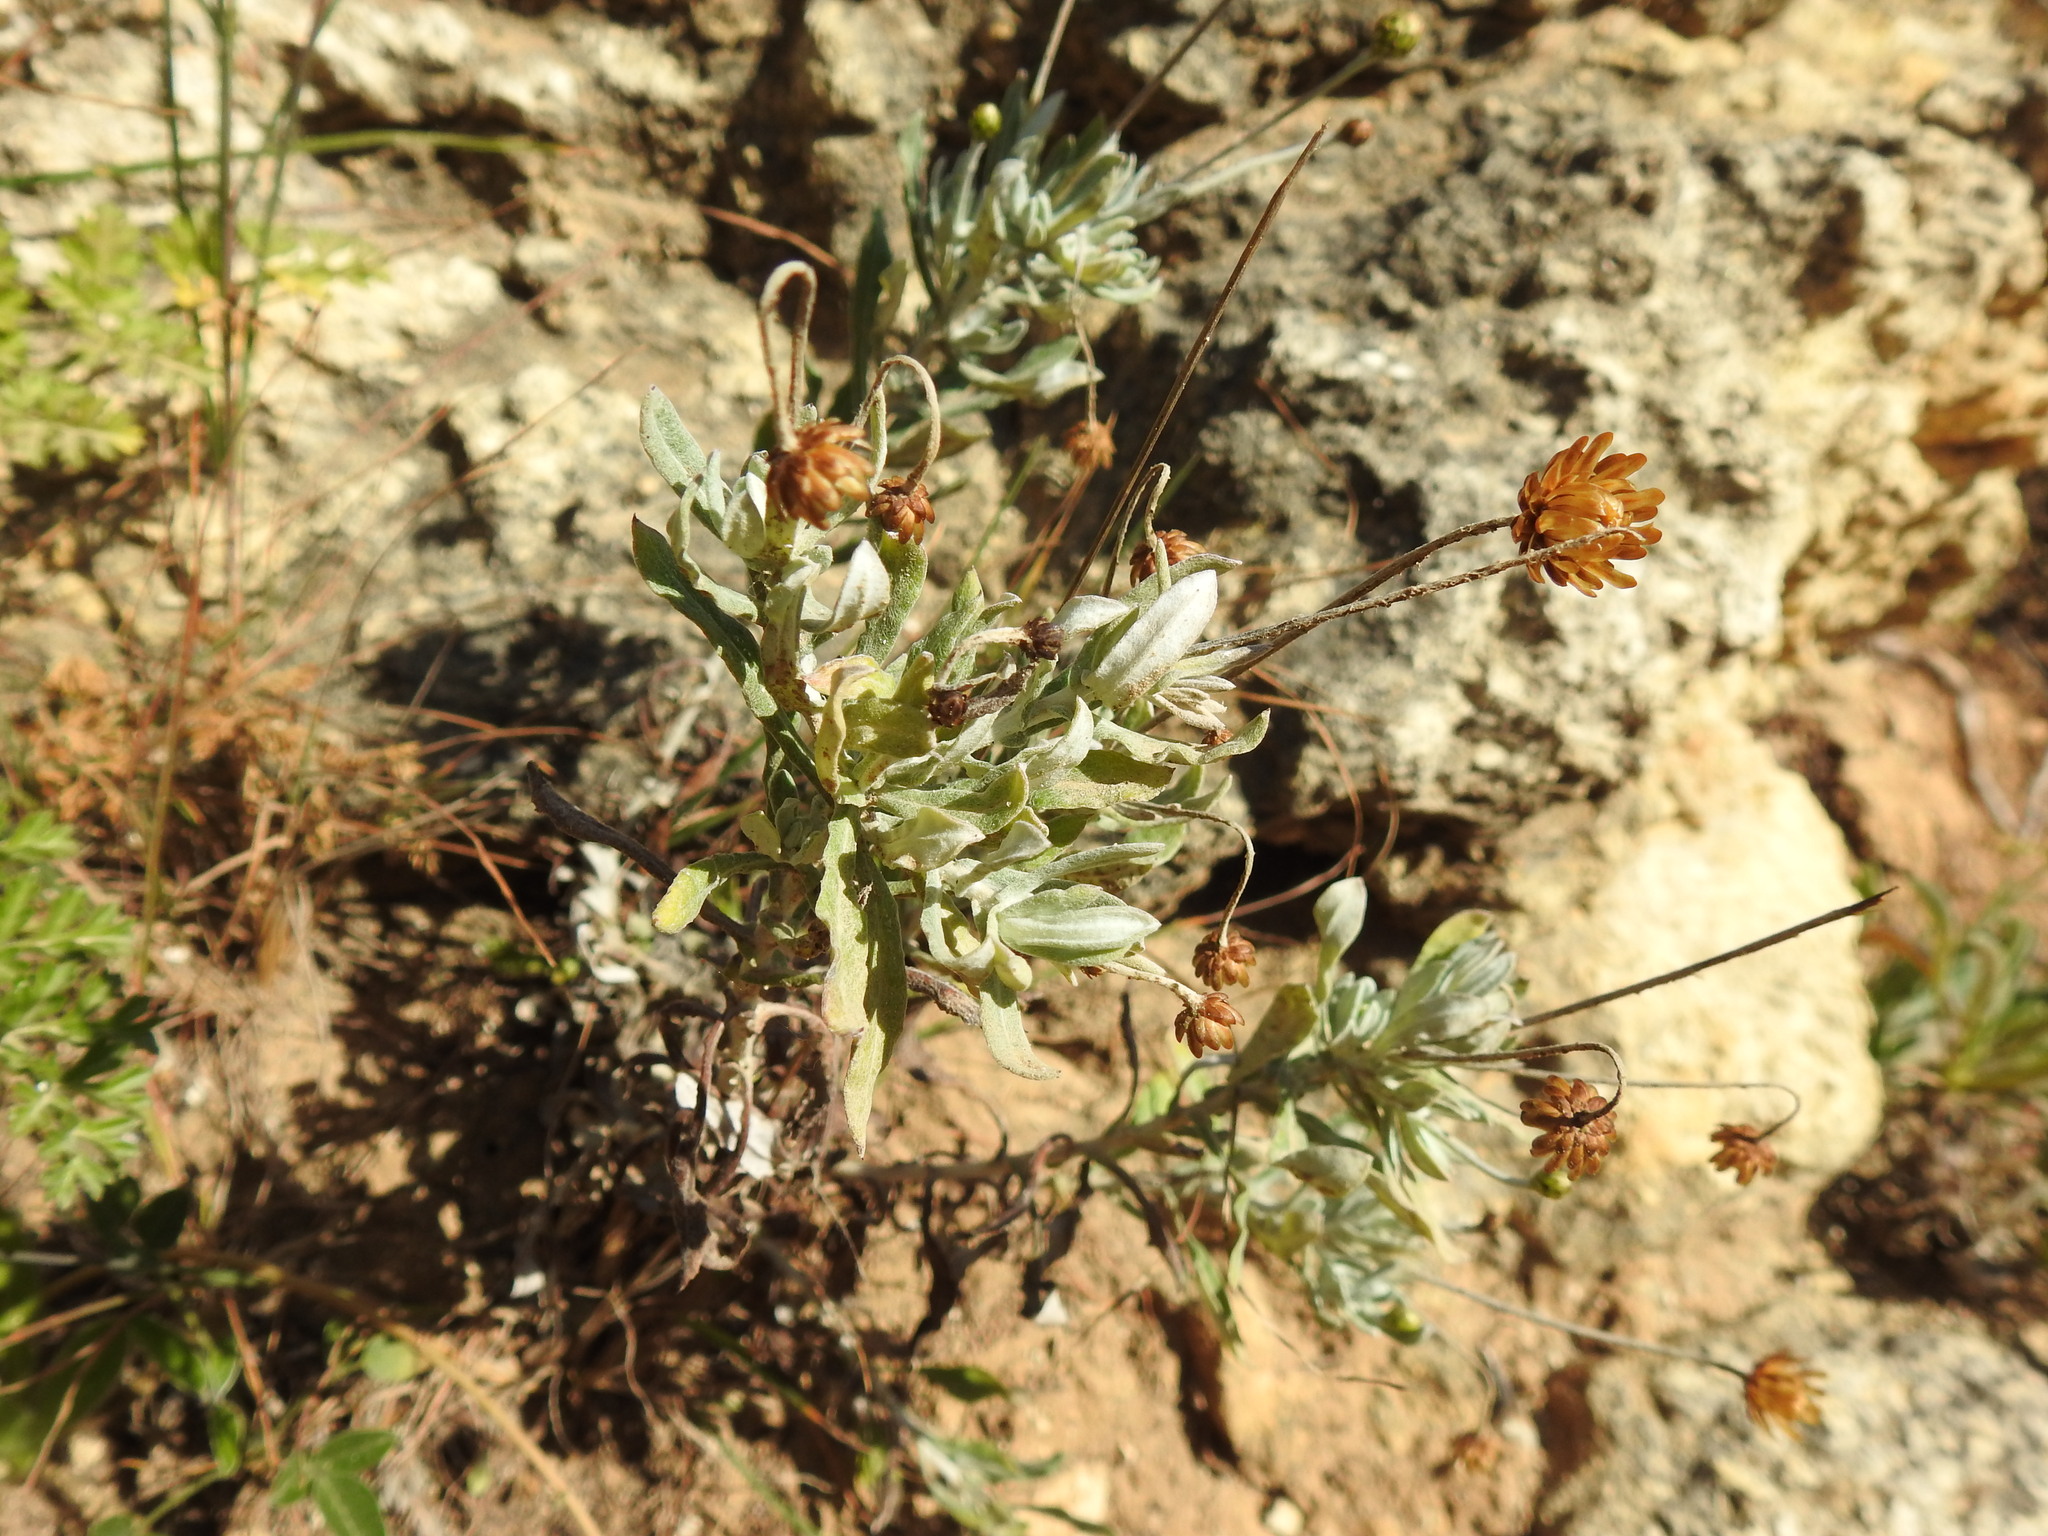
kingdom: Plantae
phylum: Tracheophyta
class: Magnoliopsida
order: Asterales
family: Asteraceae
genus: Phagnalon
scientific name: Phagnalon rupestre
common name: Rock phagnalon
